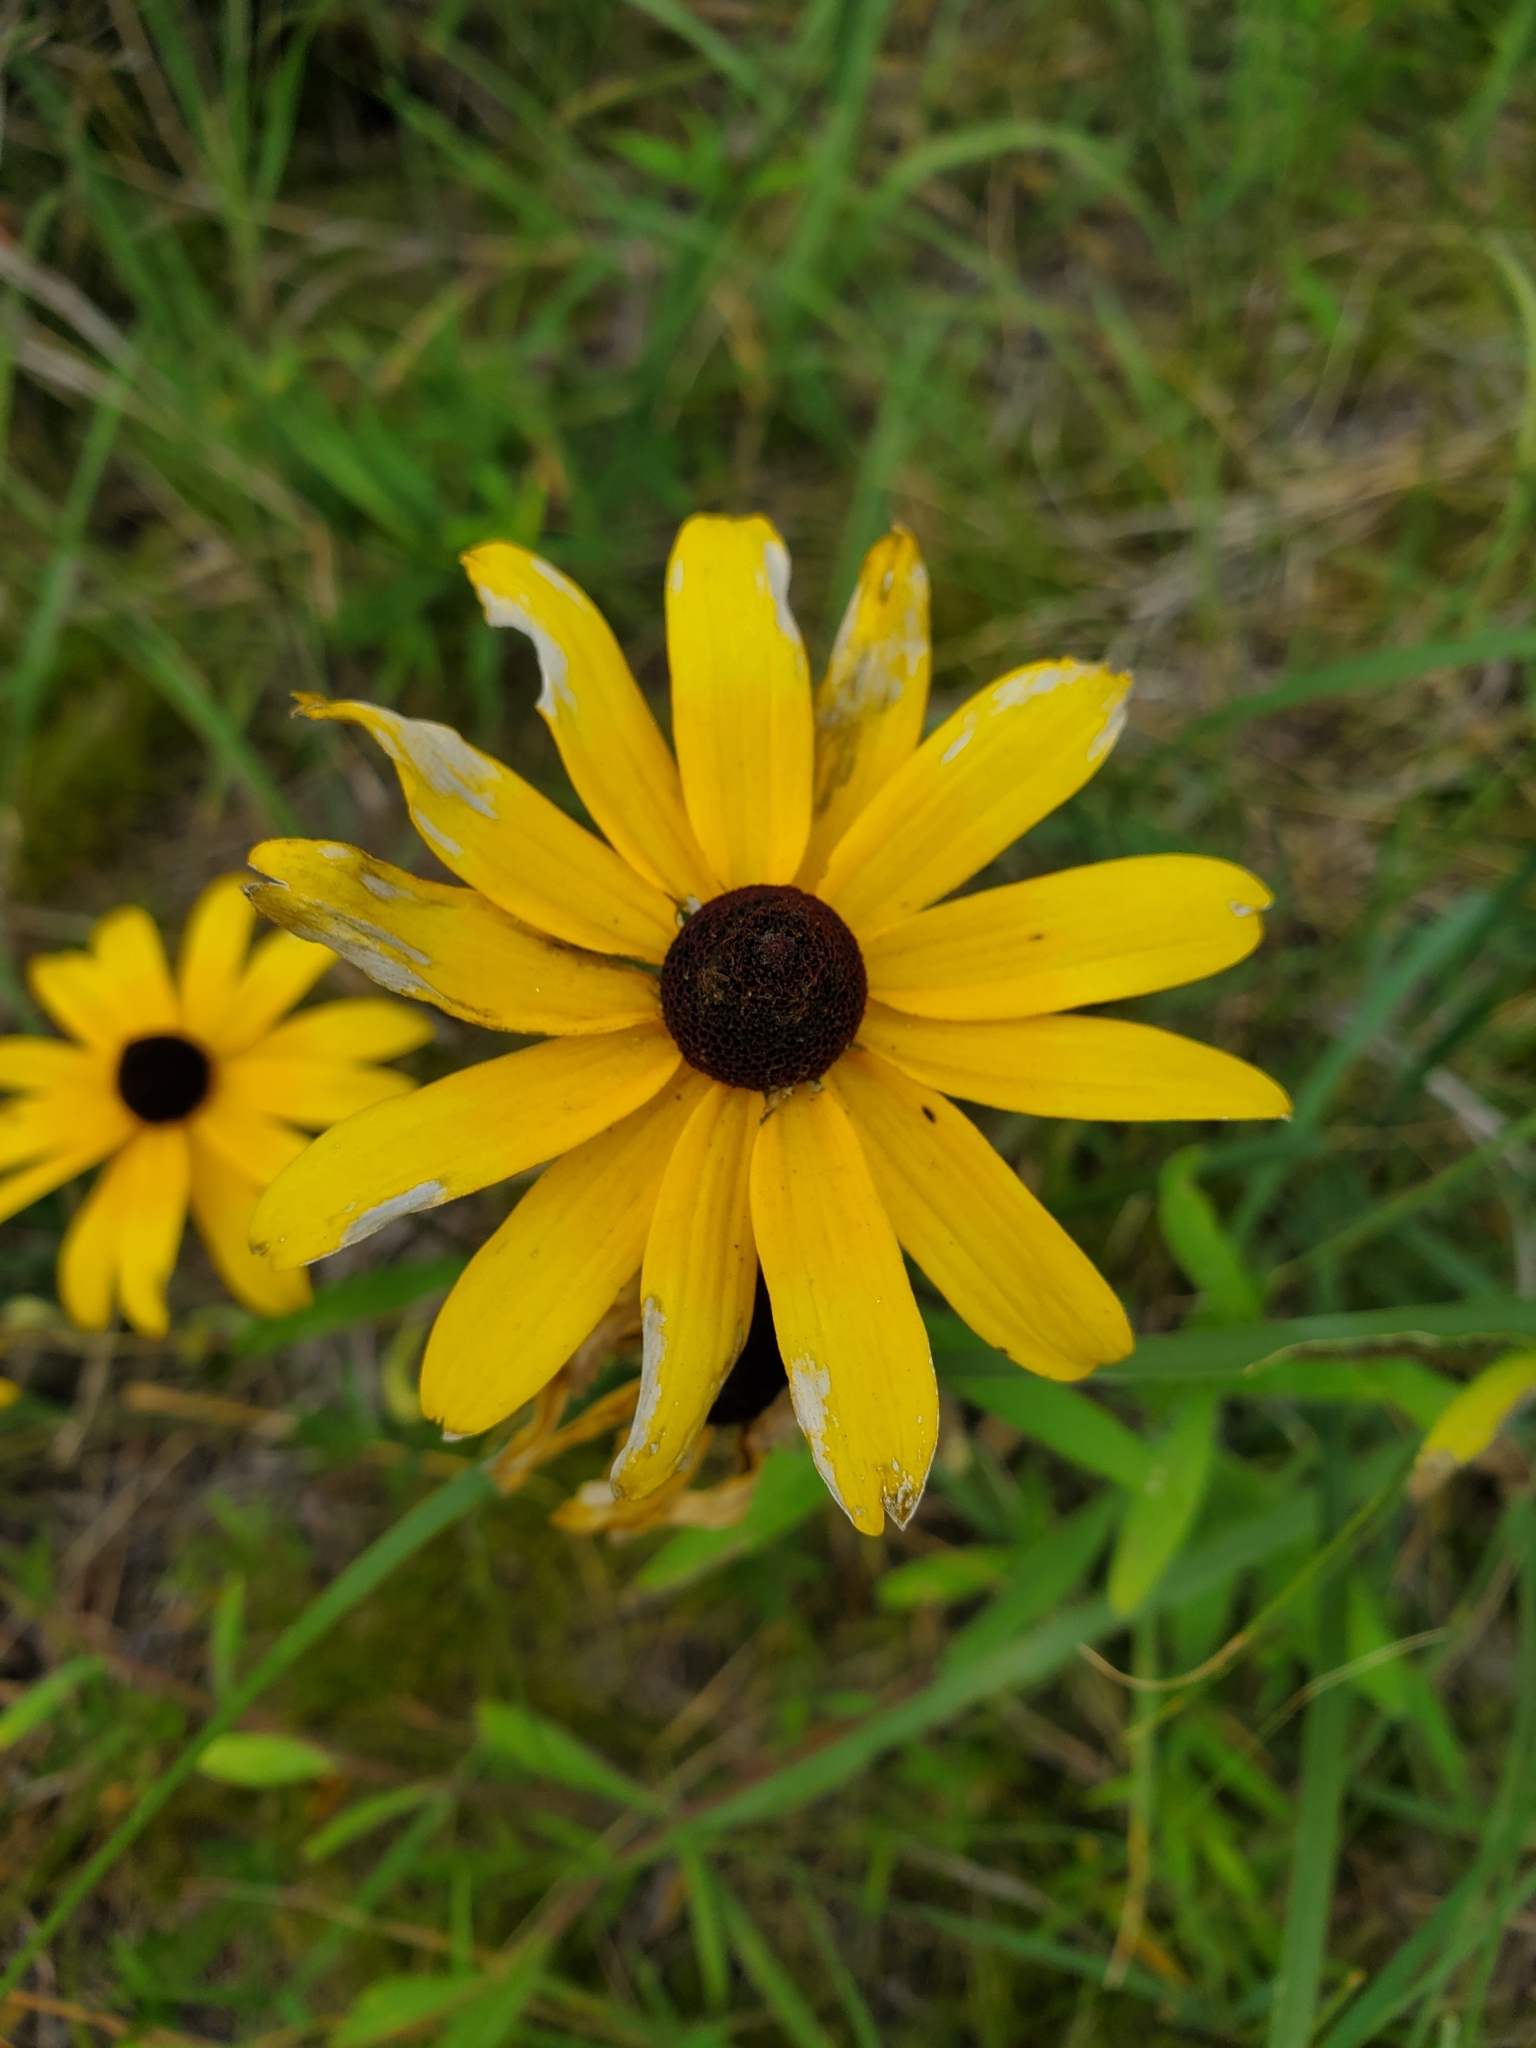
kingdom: Plantae
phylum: Tracheophyta
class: Magnoliopsida
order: Asterales
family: Asteraceae
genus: Rudbeckia
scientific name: Rudbeckia hirta
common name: Black-eyed-susan
